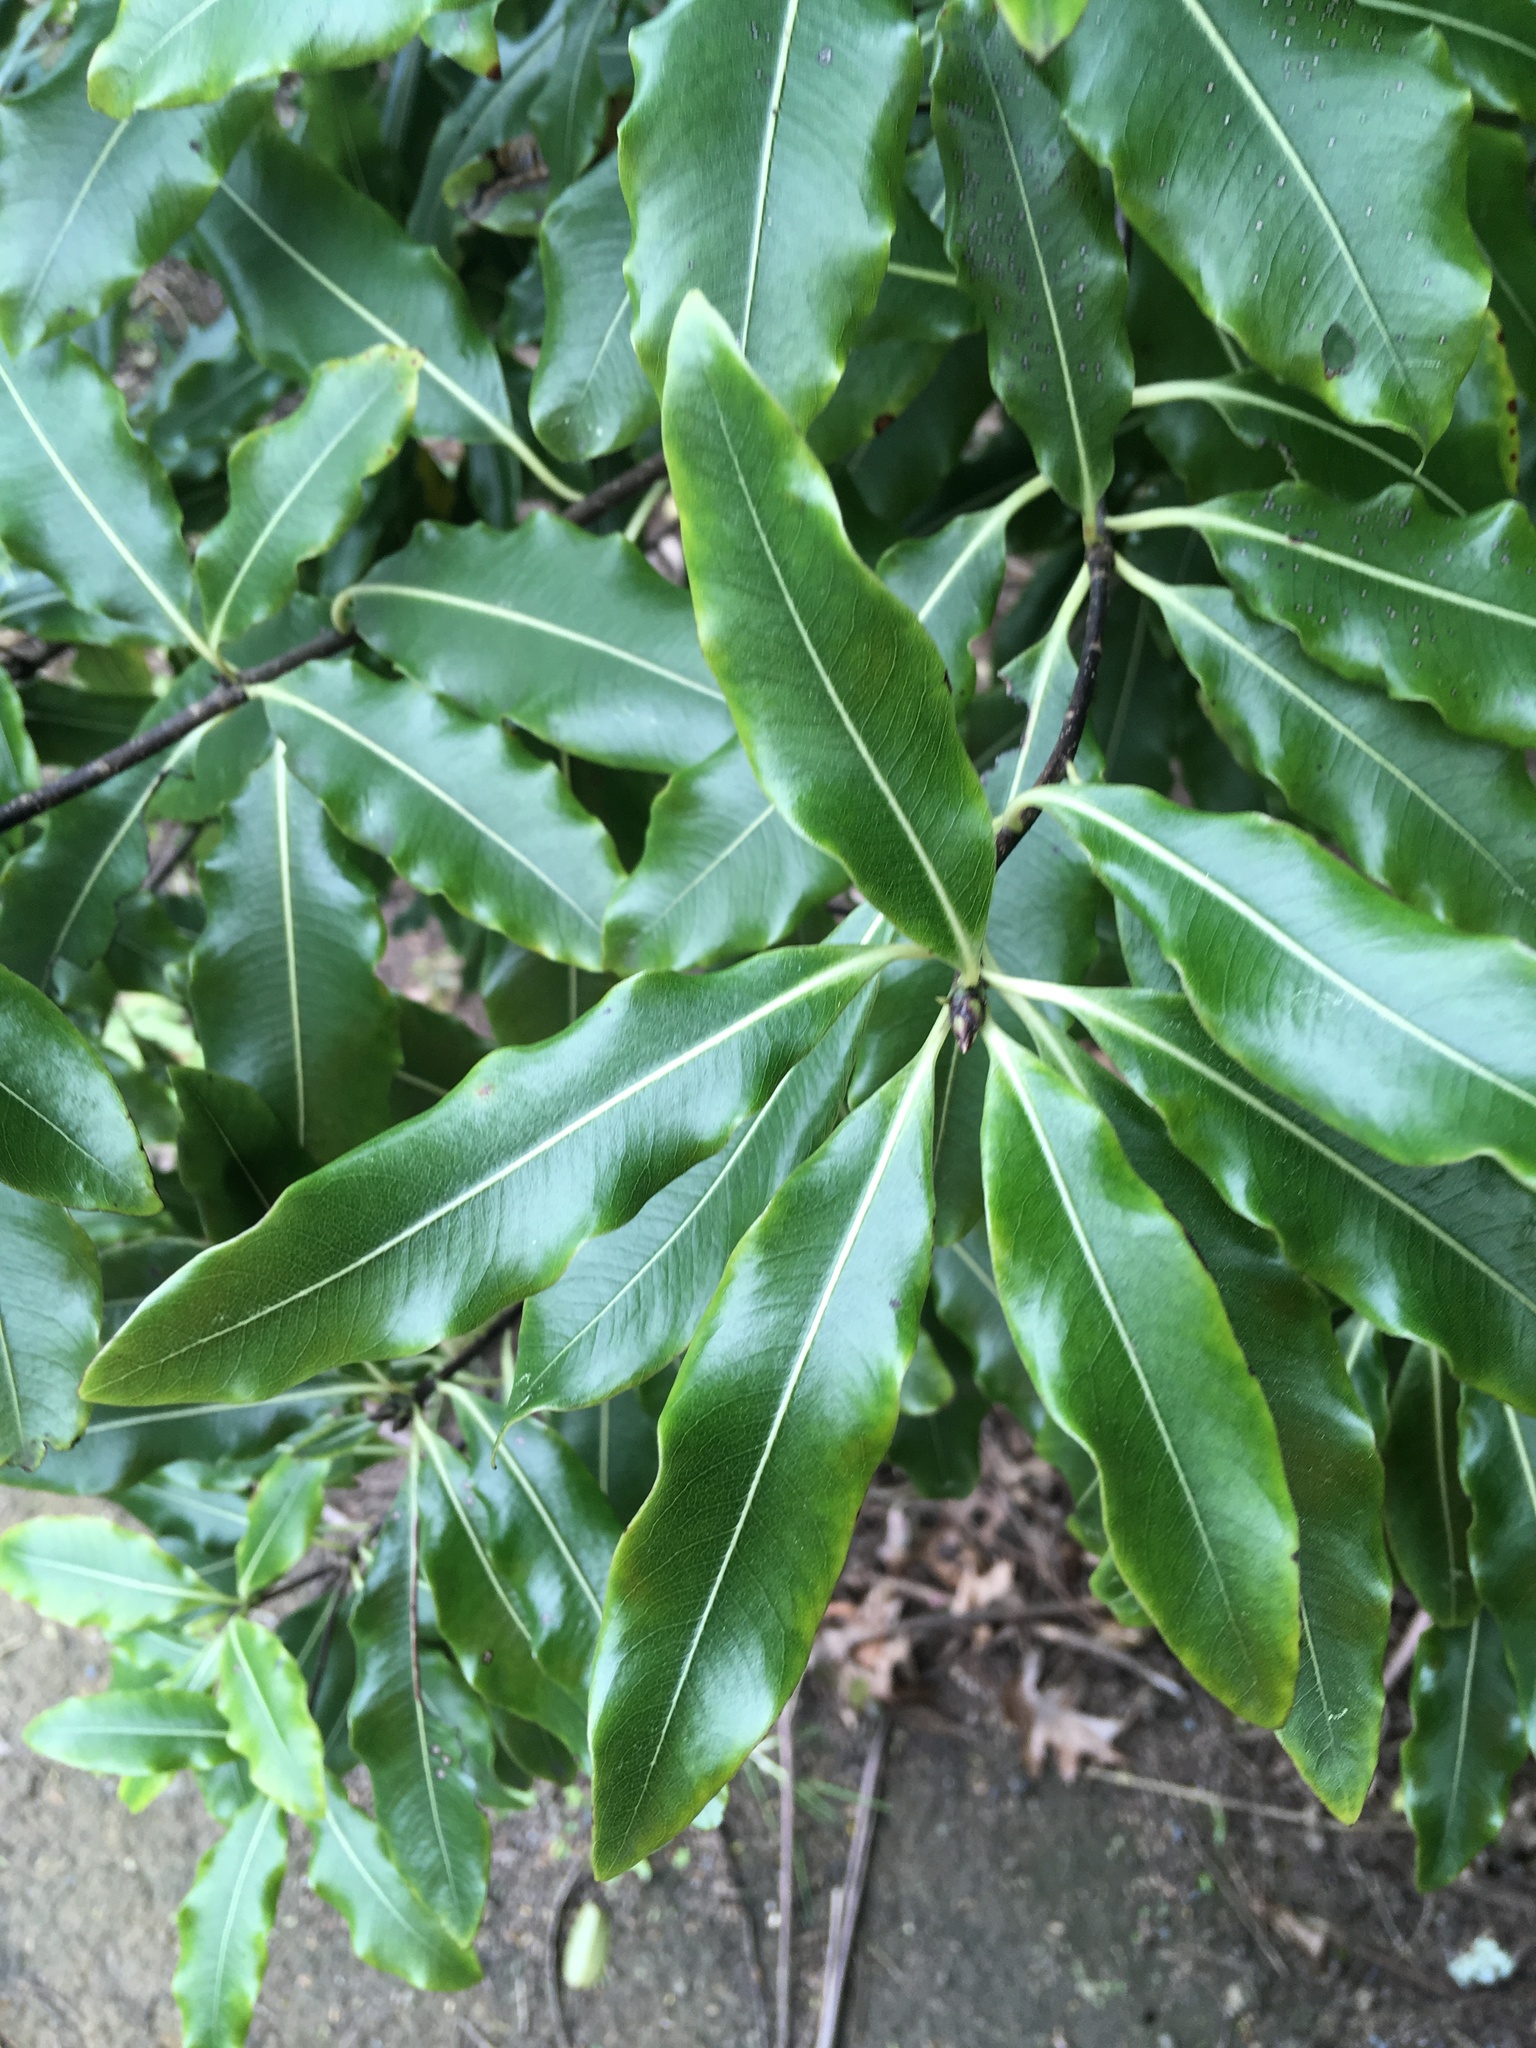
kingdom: Plantae
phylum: Tracheophyta
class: Magnoliopsida
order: Apiales
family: Pittosporaceae
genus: Pittosporum
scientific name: Pittosporum eugenioides
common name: Lemonwood
